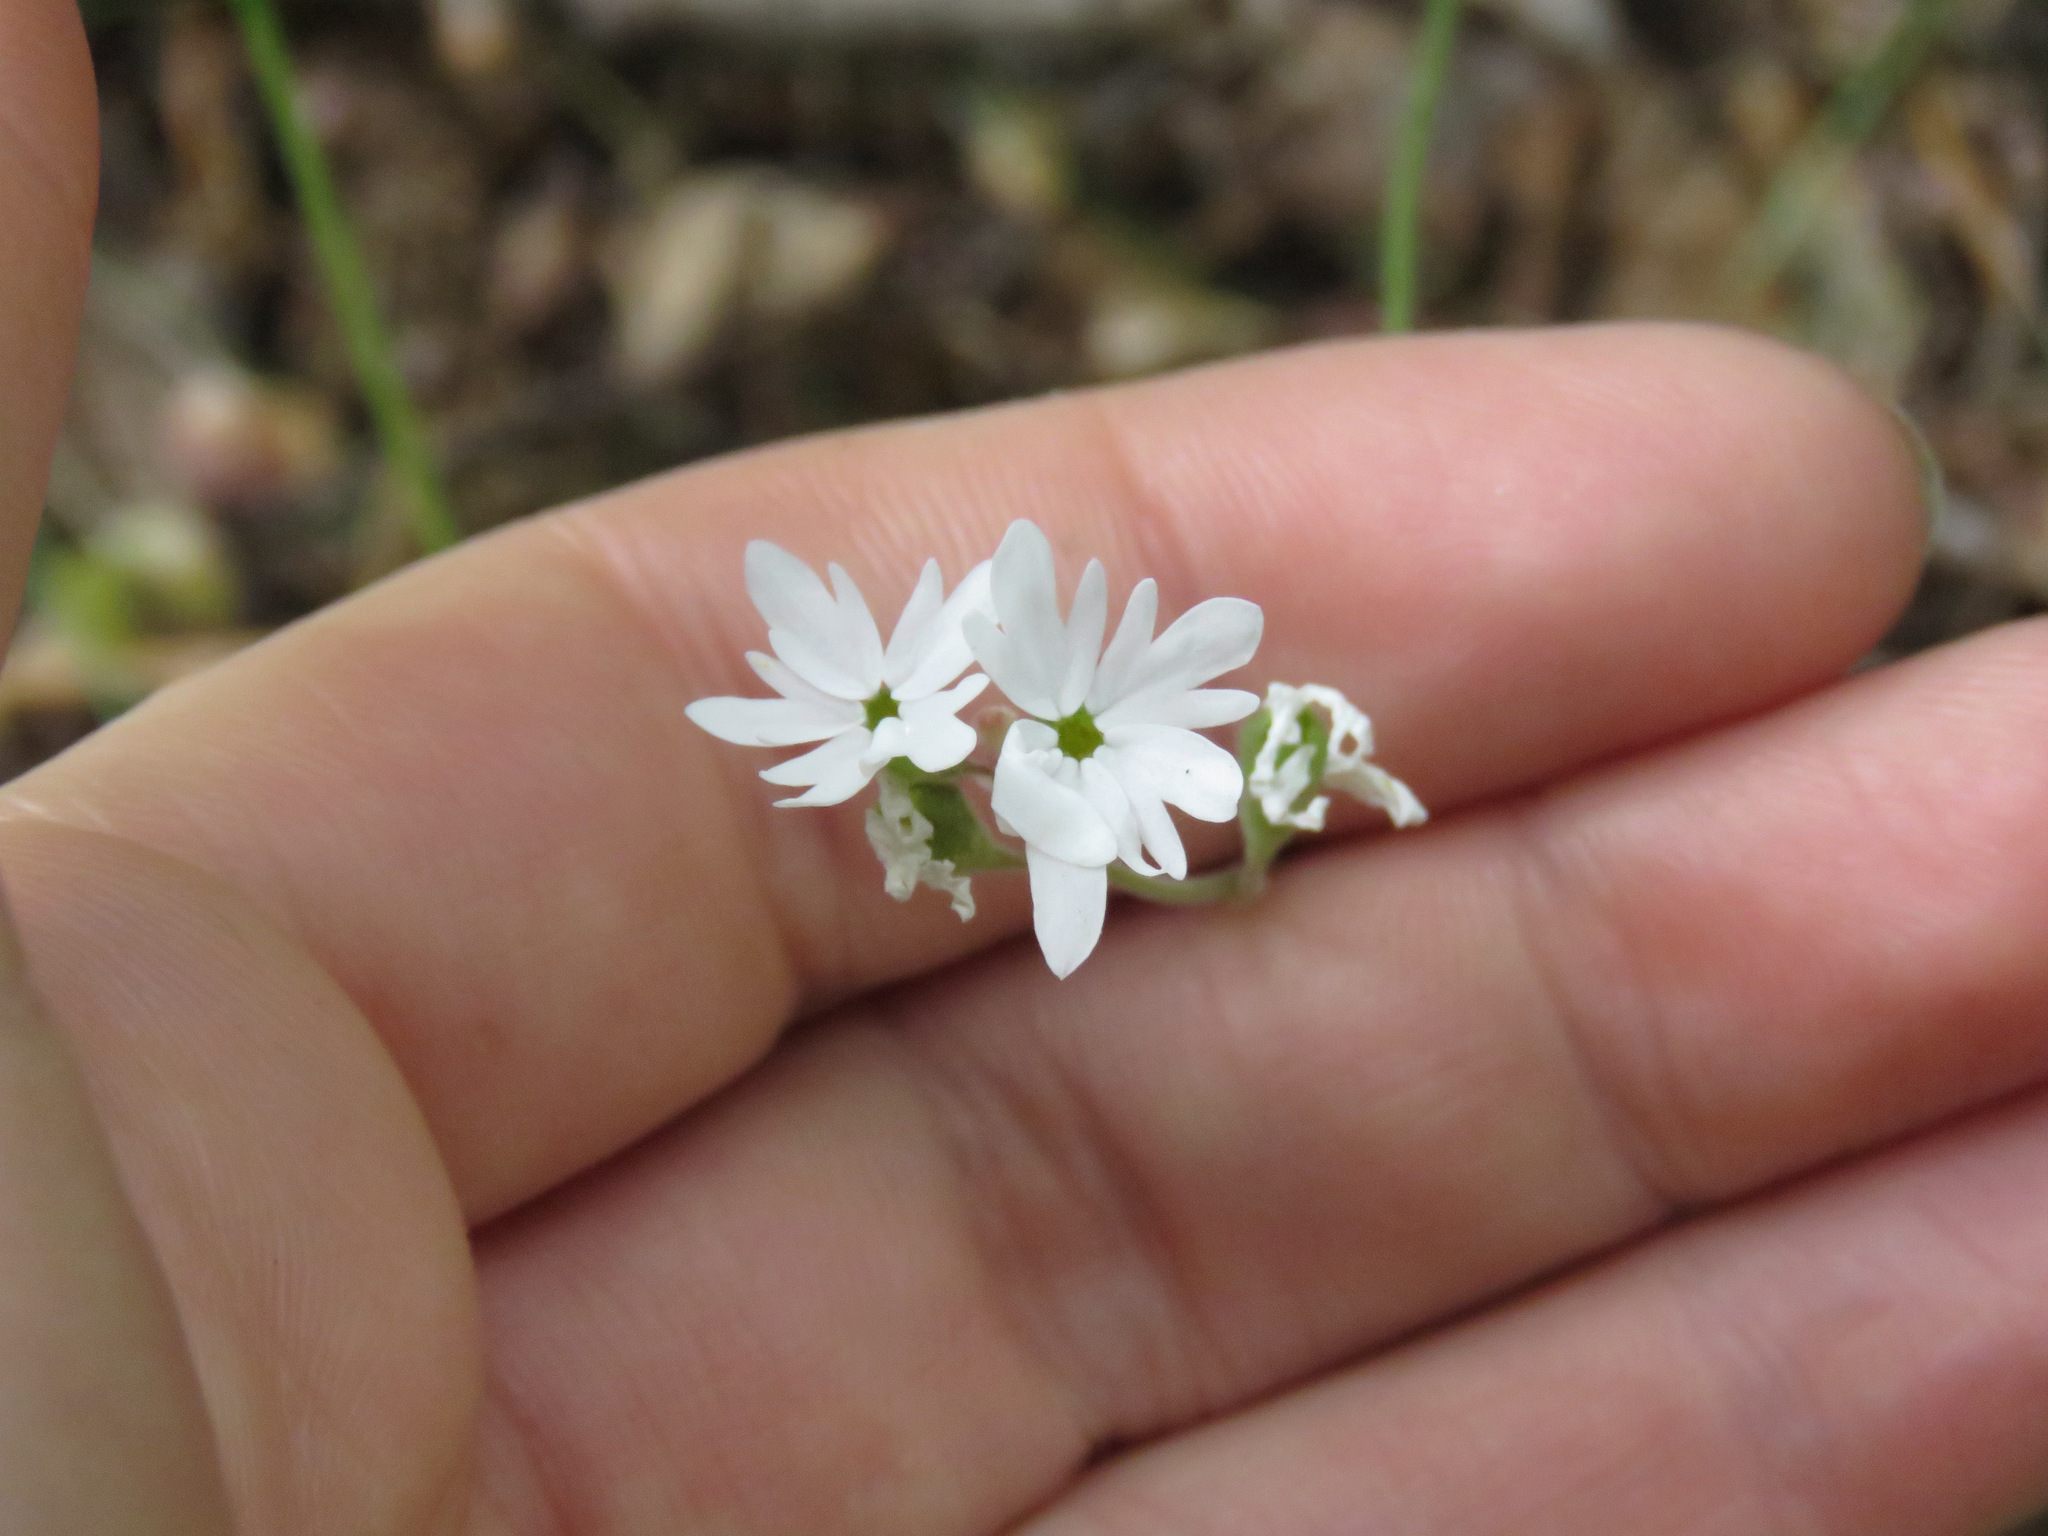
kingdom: Plantae
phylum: Tracheophyta
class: Magnoliopsida
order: Saxifragales
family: Saxifragaceae
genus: Lithophragma
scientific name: Lithophragma parviflorum
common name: Small-flowered fringe-cup
